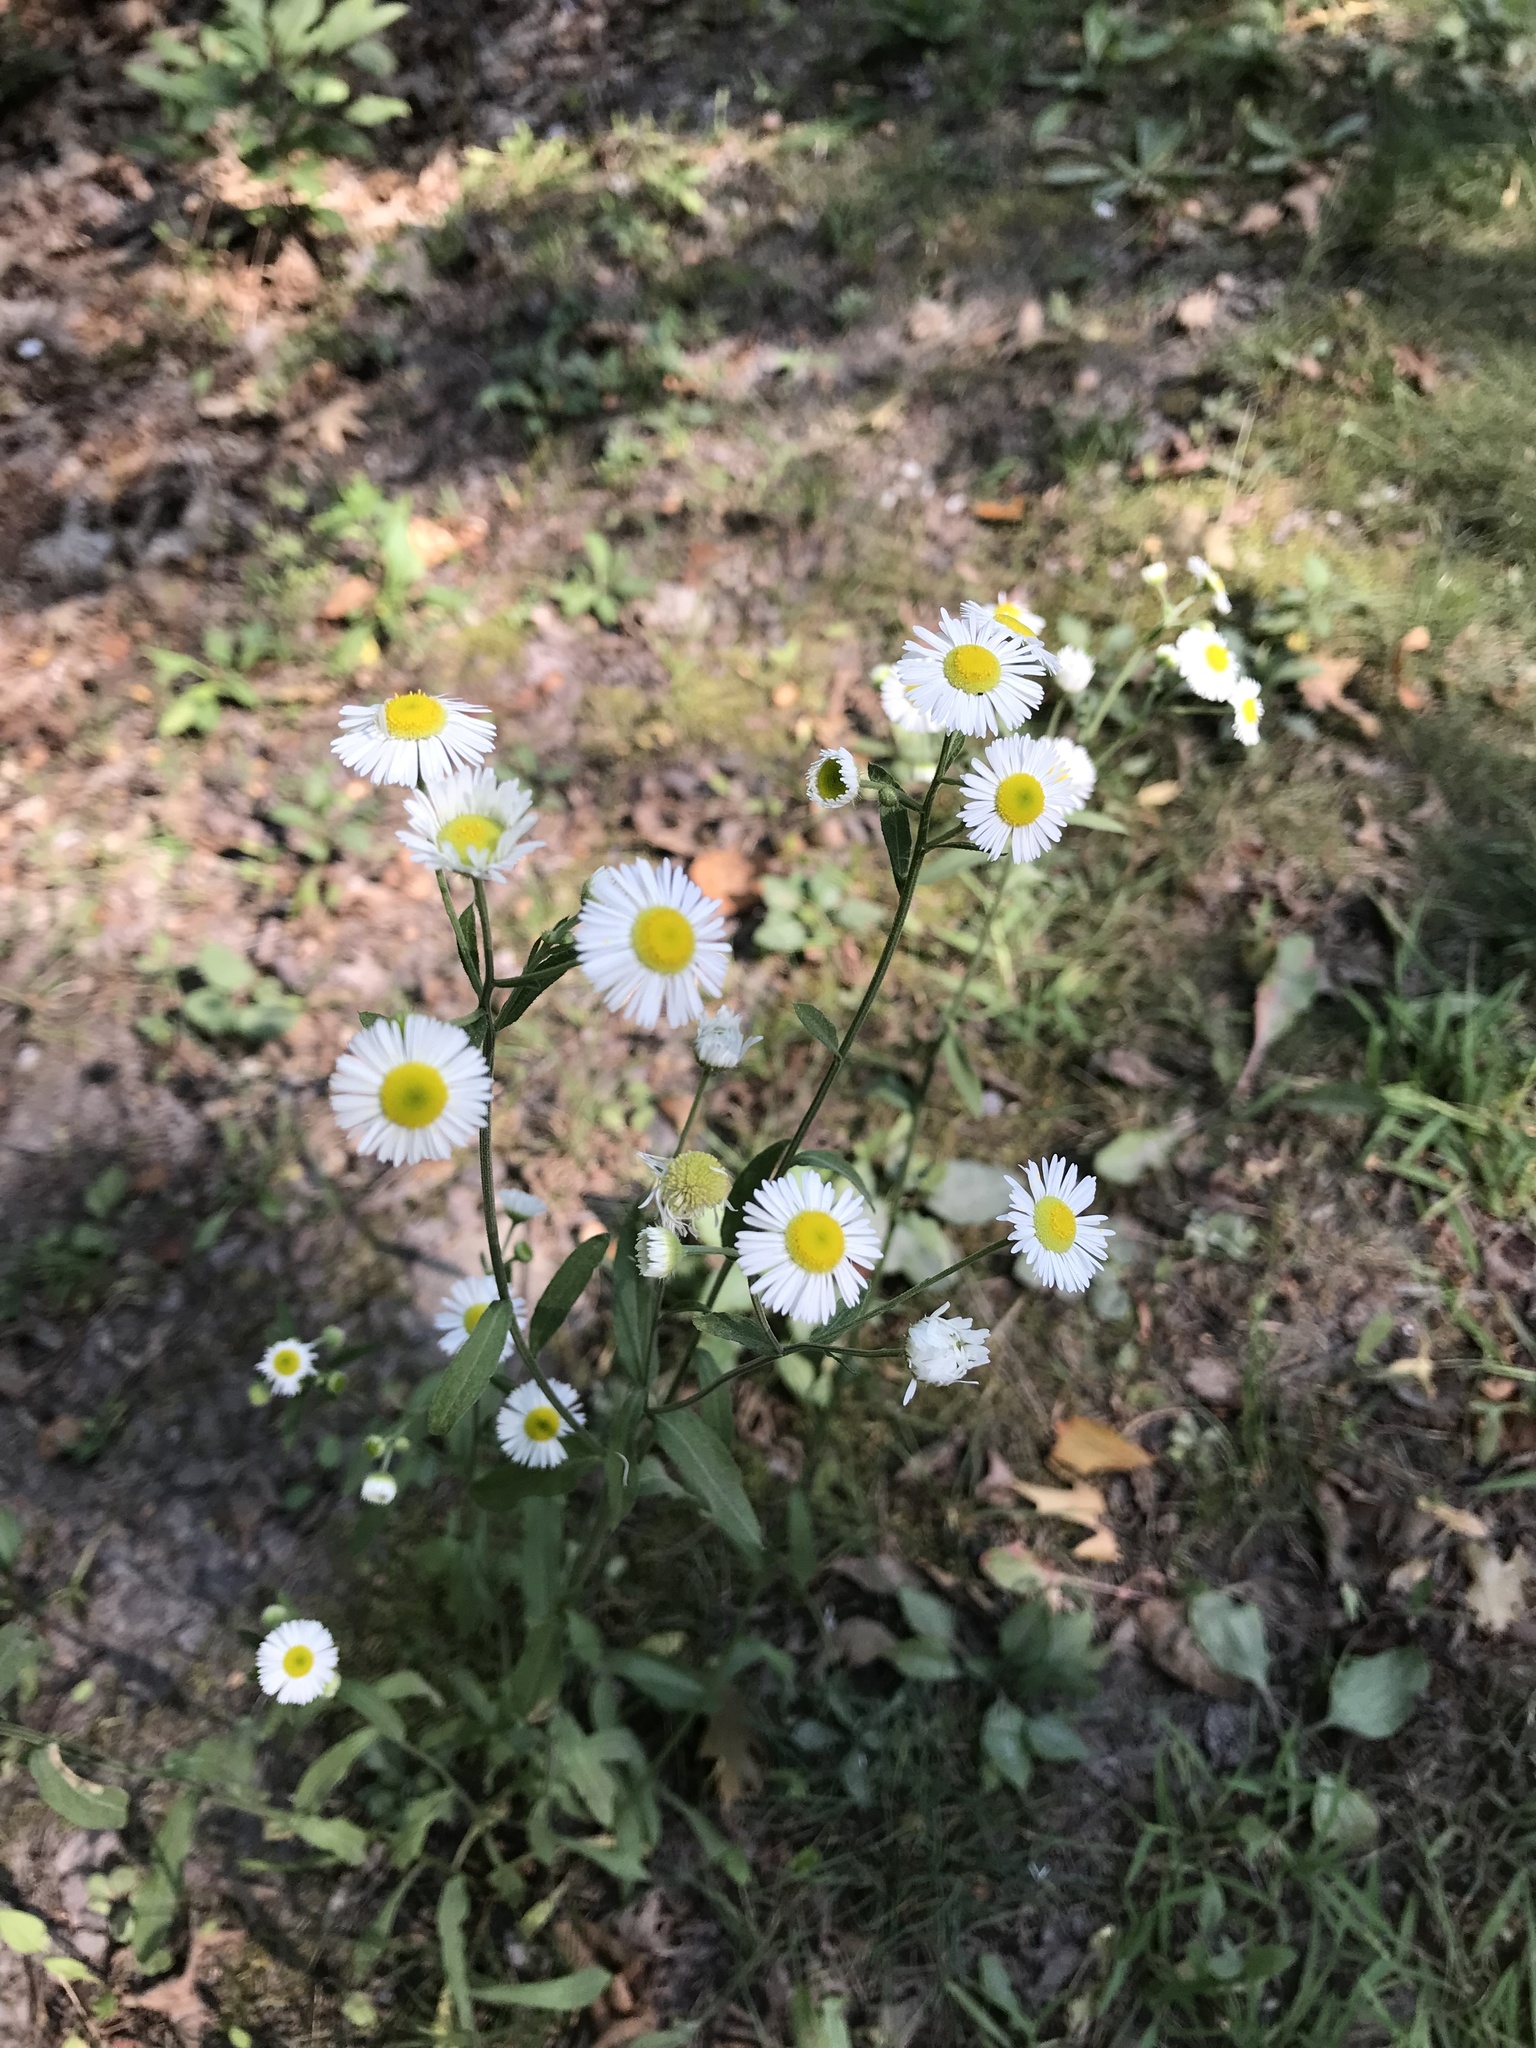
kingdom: Plantae
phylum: Tracheophyta
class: Magnoliopsida
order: Asterales
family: Asteraceae
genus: Erigeron
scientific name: Erigeron strigosus
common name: Common eastern fleabane
